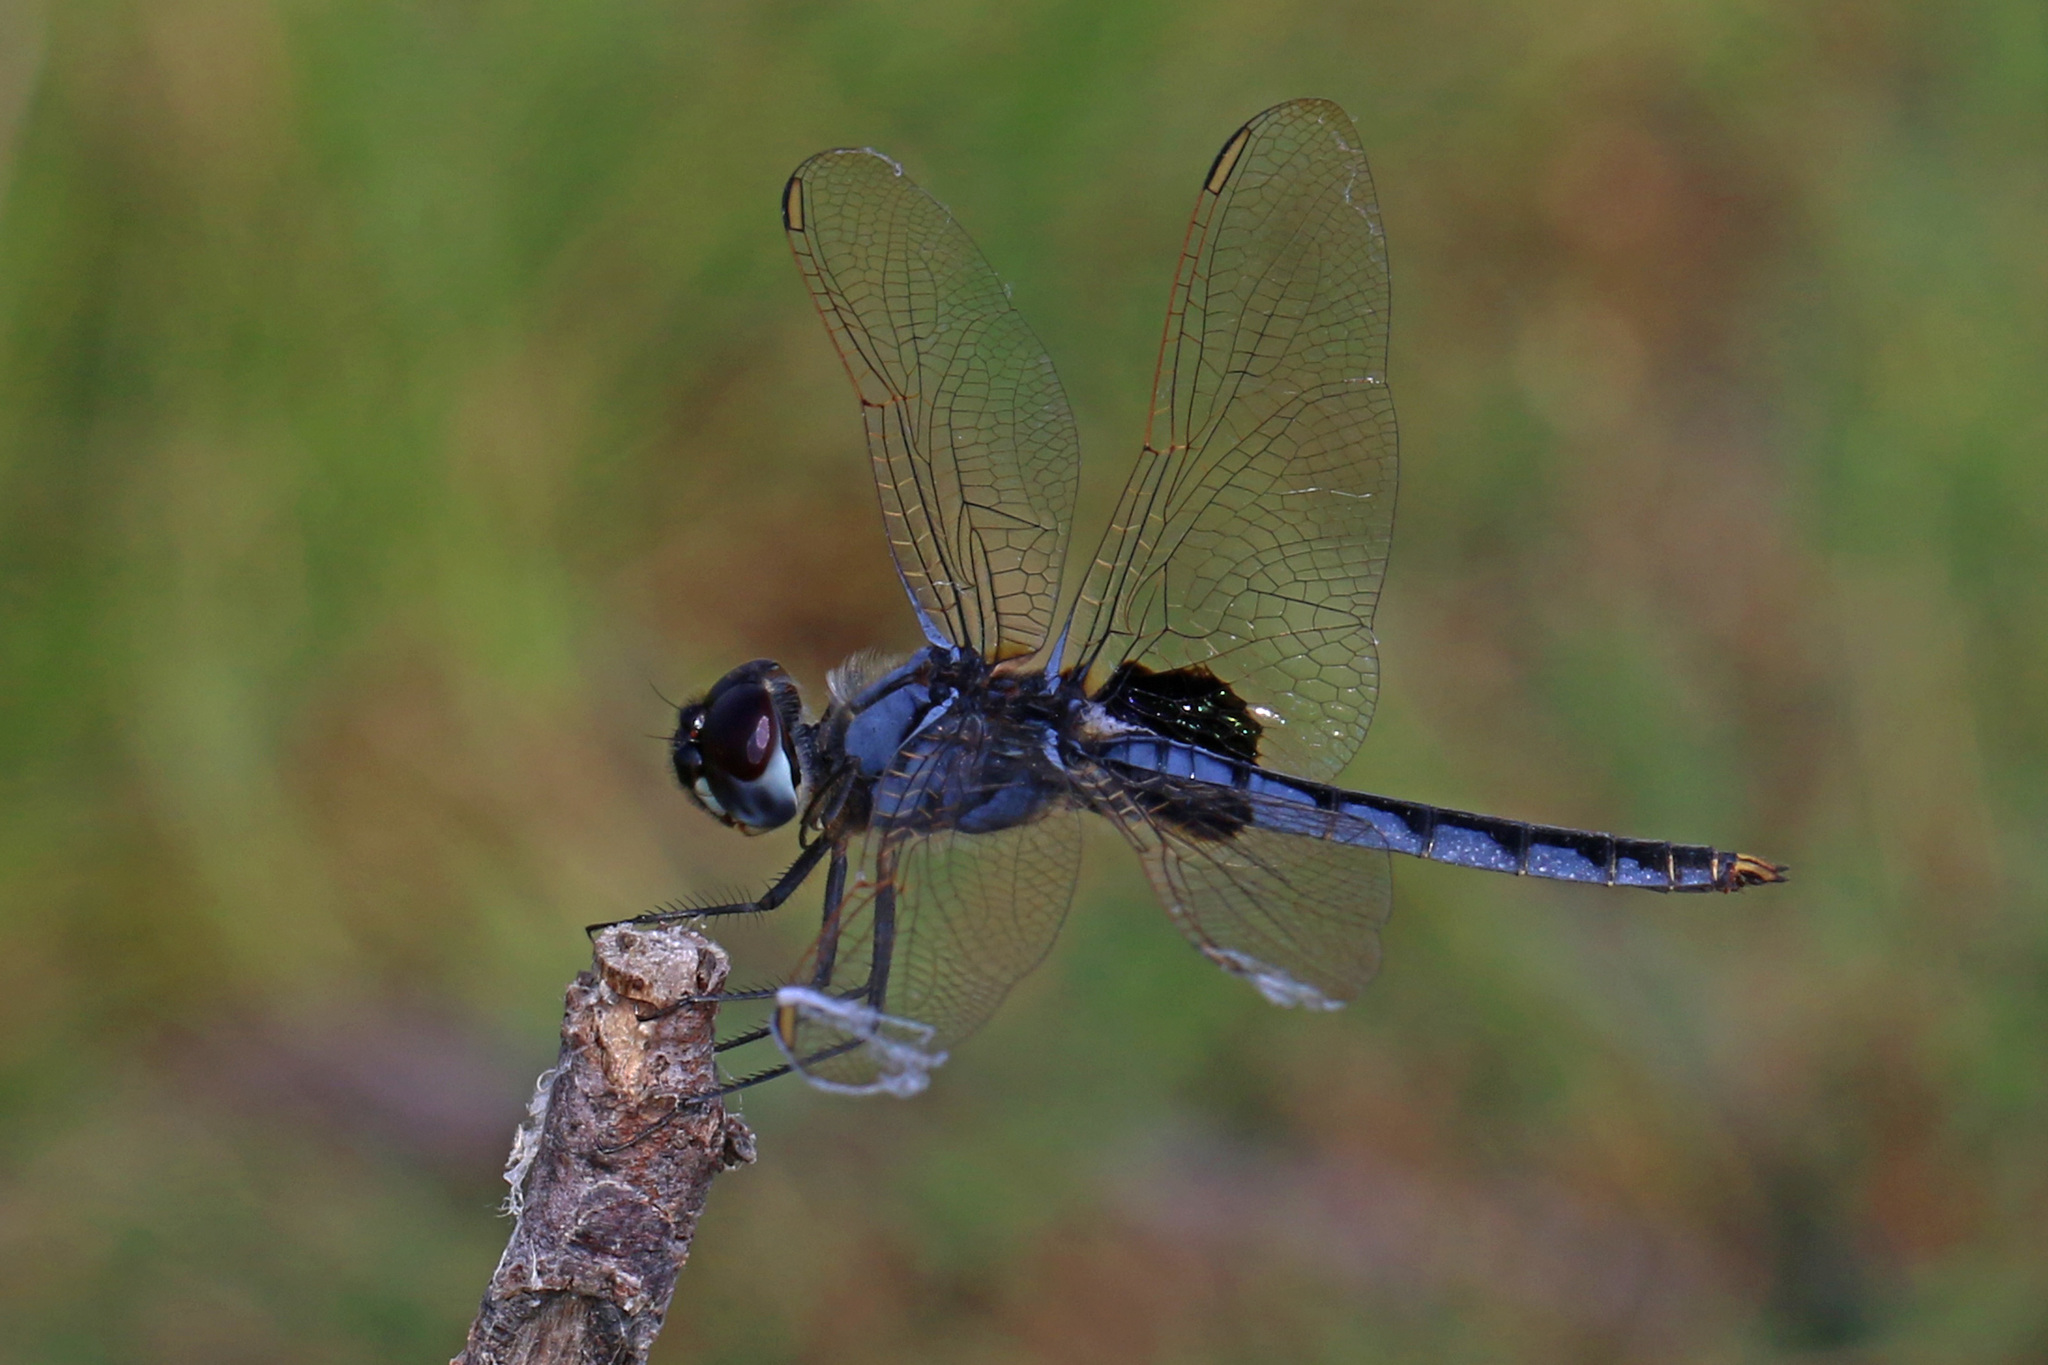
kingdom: Animalia
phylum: Arthropoda
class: Insecta
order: Odonata
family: Libellulidae
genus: Urothemis
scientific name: Urothemis edwardsii
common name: Blue basker
